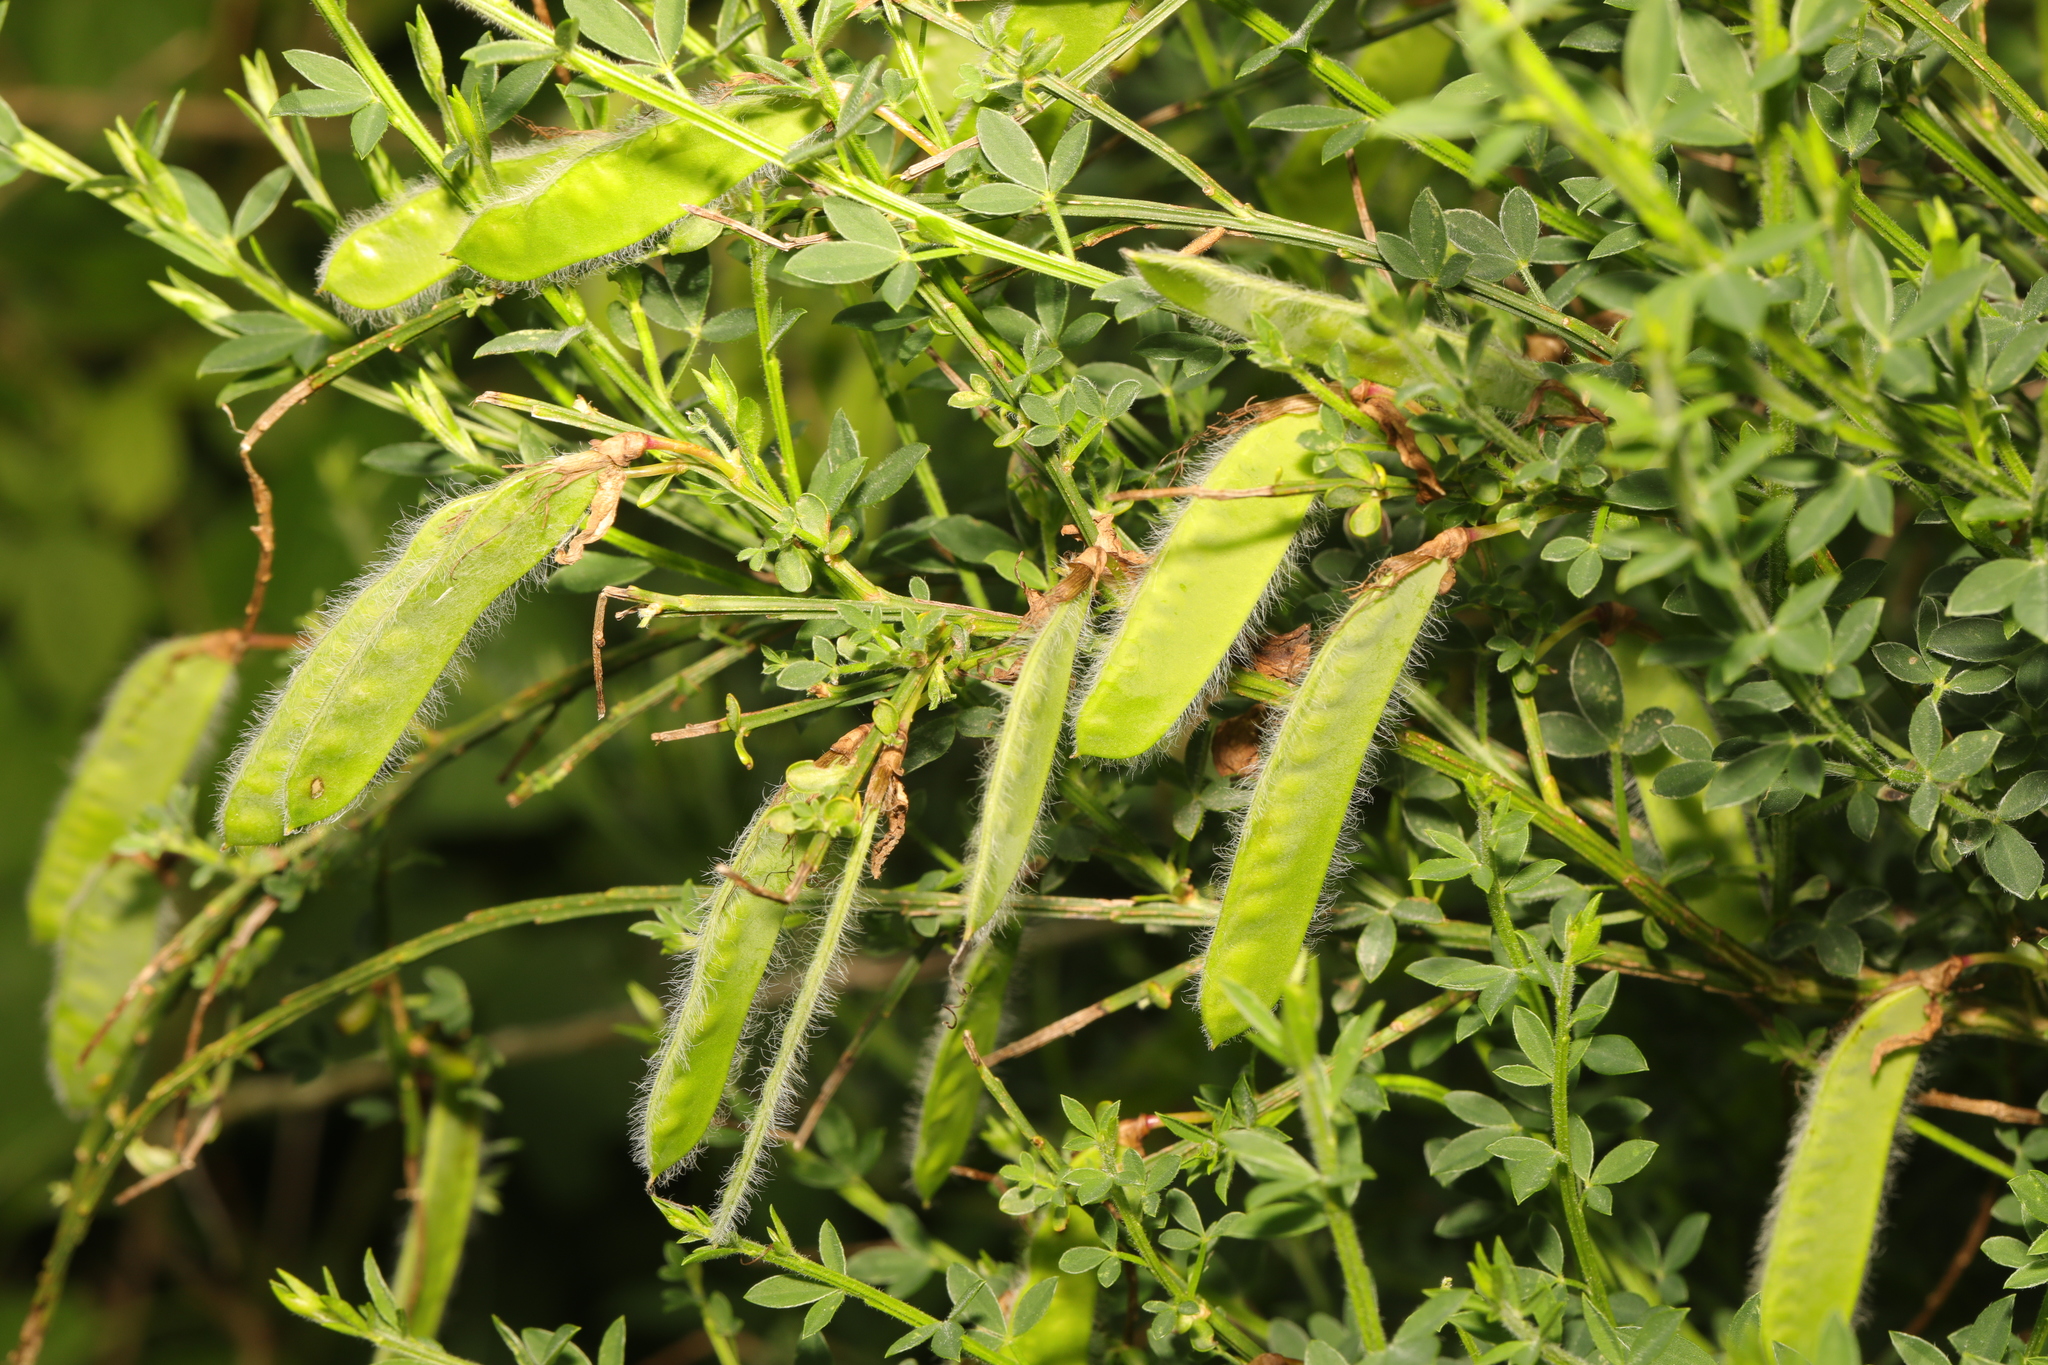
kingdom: Plantae
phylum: Tracheophyta
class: Magnoliopsida
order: Fabales
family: Fabaceae
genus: Cytisus
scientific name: Cytisus scoparius
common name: Scotch broom
